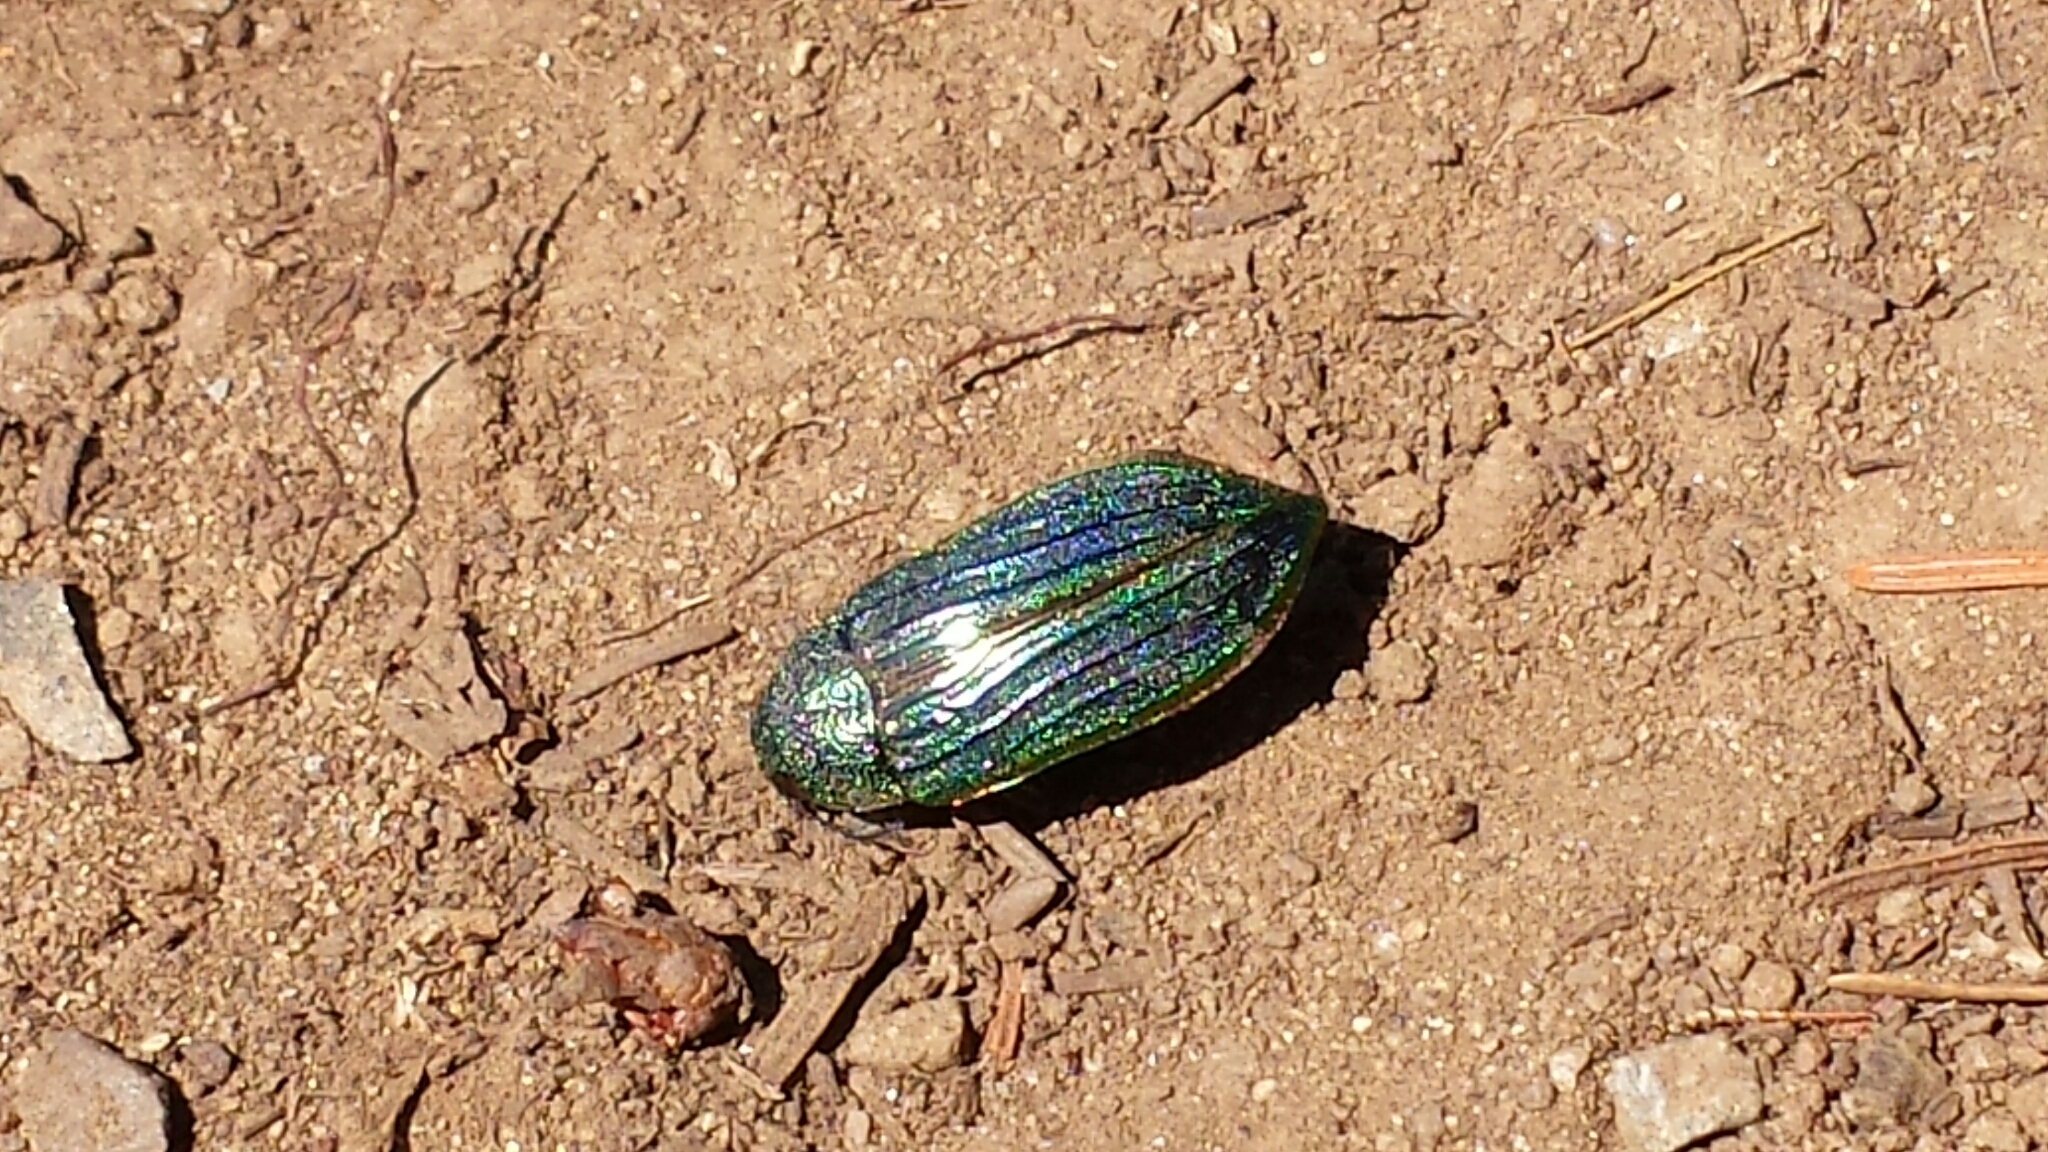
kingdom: Animalia
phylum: Arthropoda
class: Insecta
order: Coleoptera
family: Buprestidae
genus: Buprestis
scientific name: Buprestis aurulenta
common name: Golden buprestid
